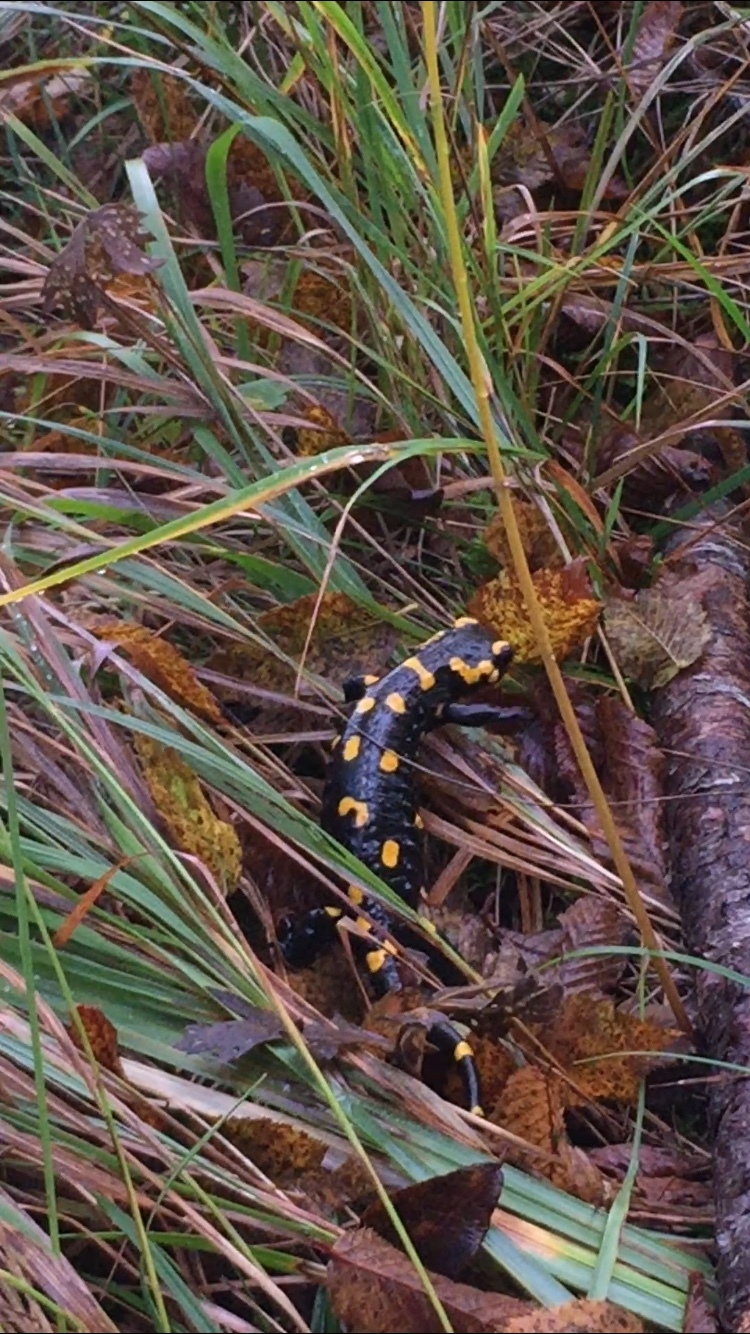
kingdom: Animalia
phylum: Chordata
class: Amphibia
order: Caudata
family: Salamandridae
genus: Salamandra
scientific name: Salamandra salamandra
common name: Fire salamander
